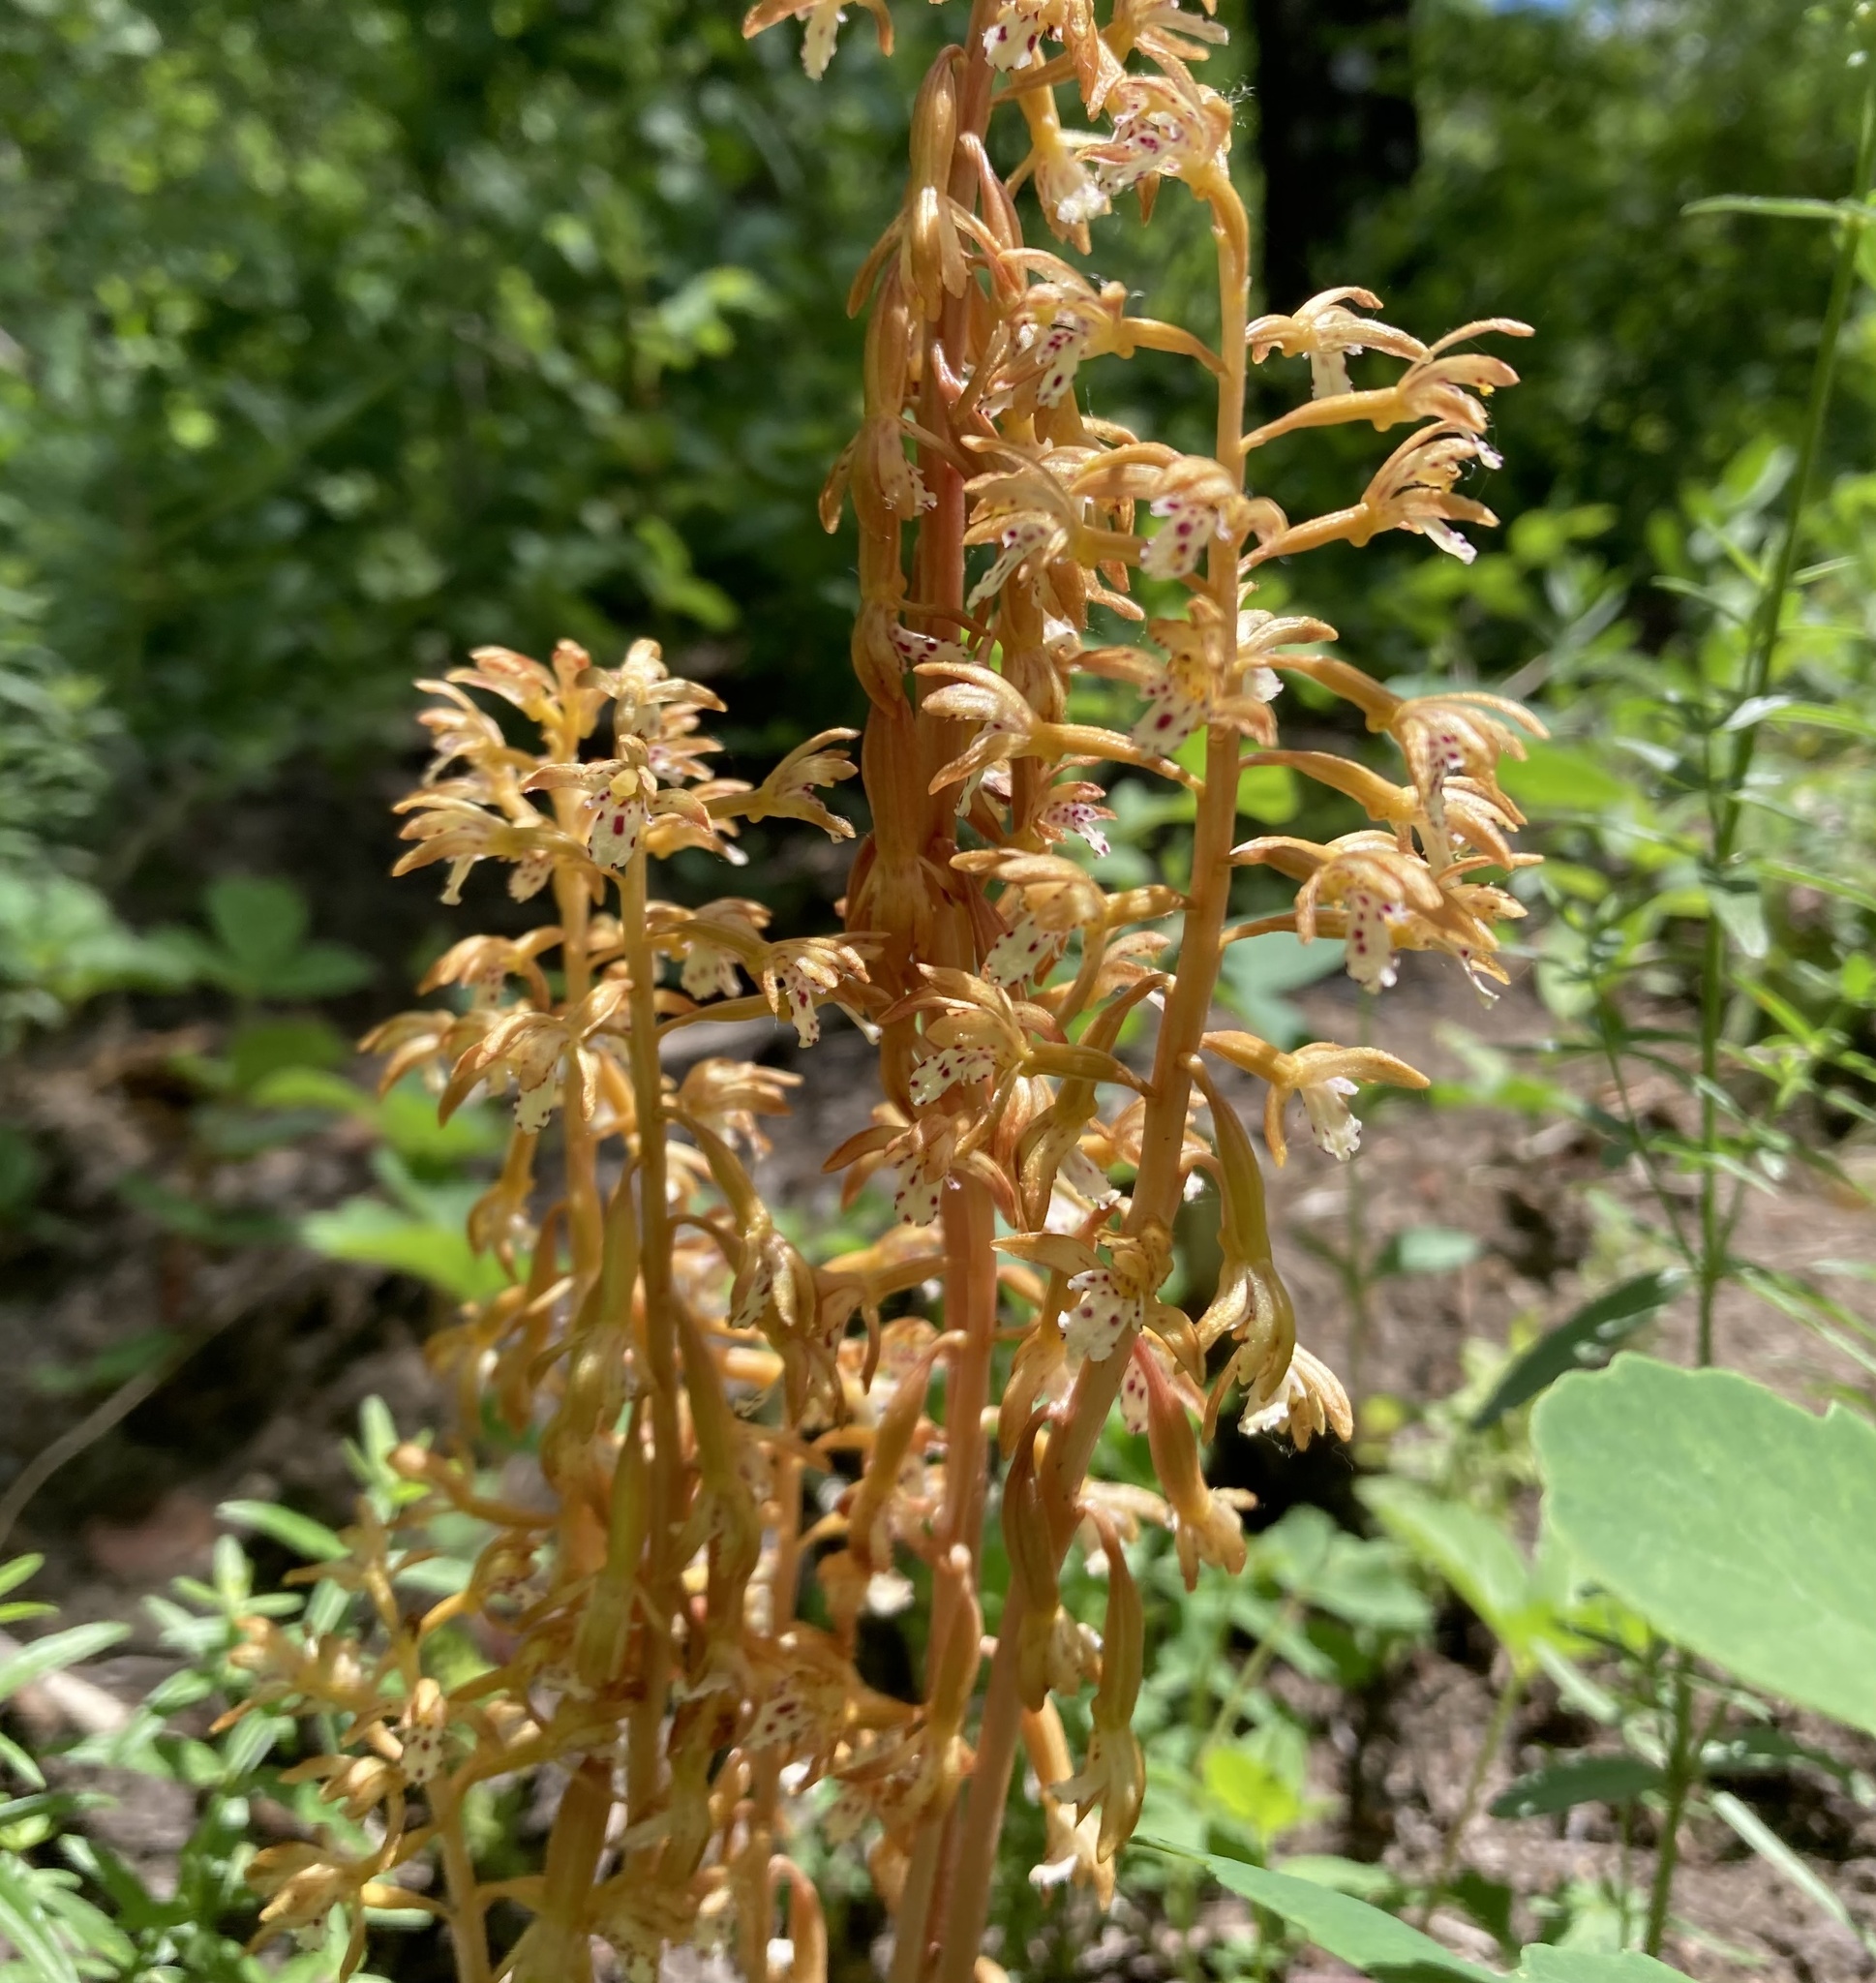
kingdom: Plantae
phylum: Tracheophyta
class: Liliopsida
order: Asparagales
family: Orchidaceae
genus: Corallorhiza
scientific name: Corallorhiza maculata
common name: Spotted coralroot
